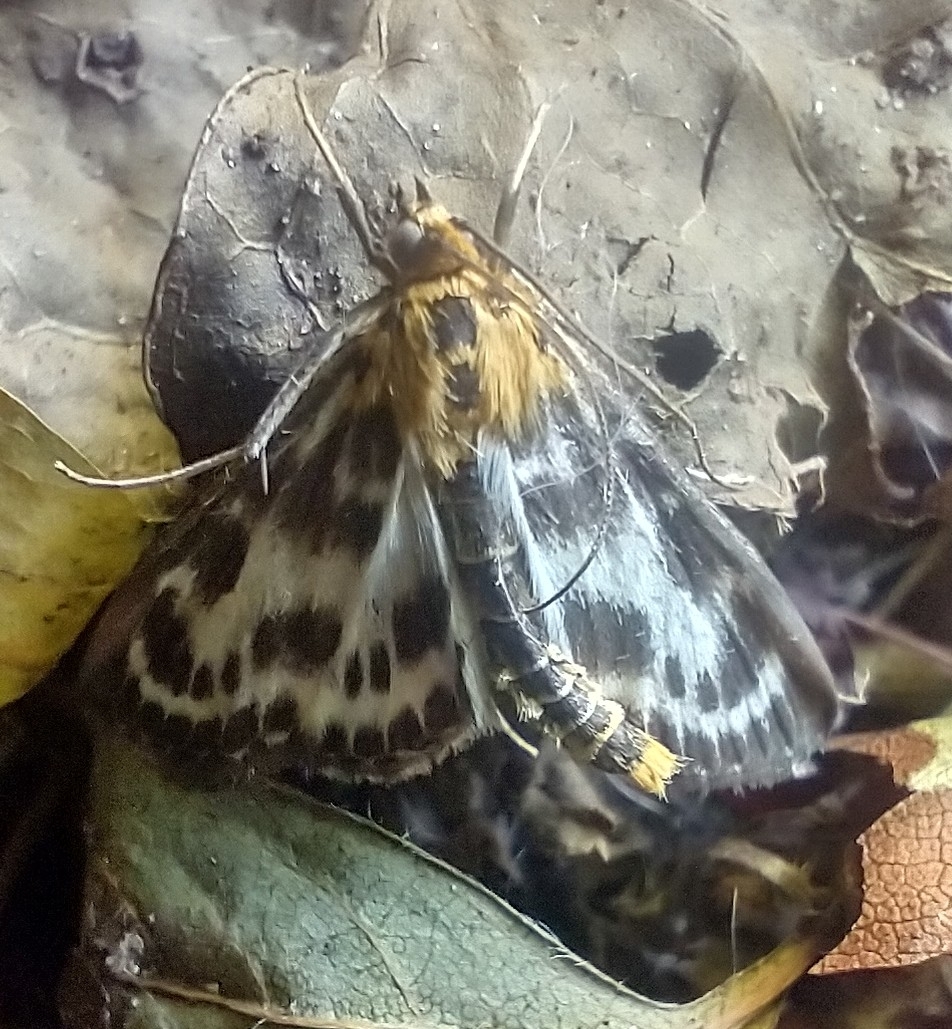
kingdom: Animalia
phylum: Arthropoda
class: Insecta
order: Lepidoptera
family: Crambidae
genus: Anania
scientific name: Anania hortulata
